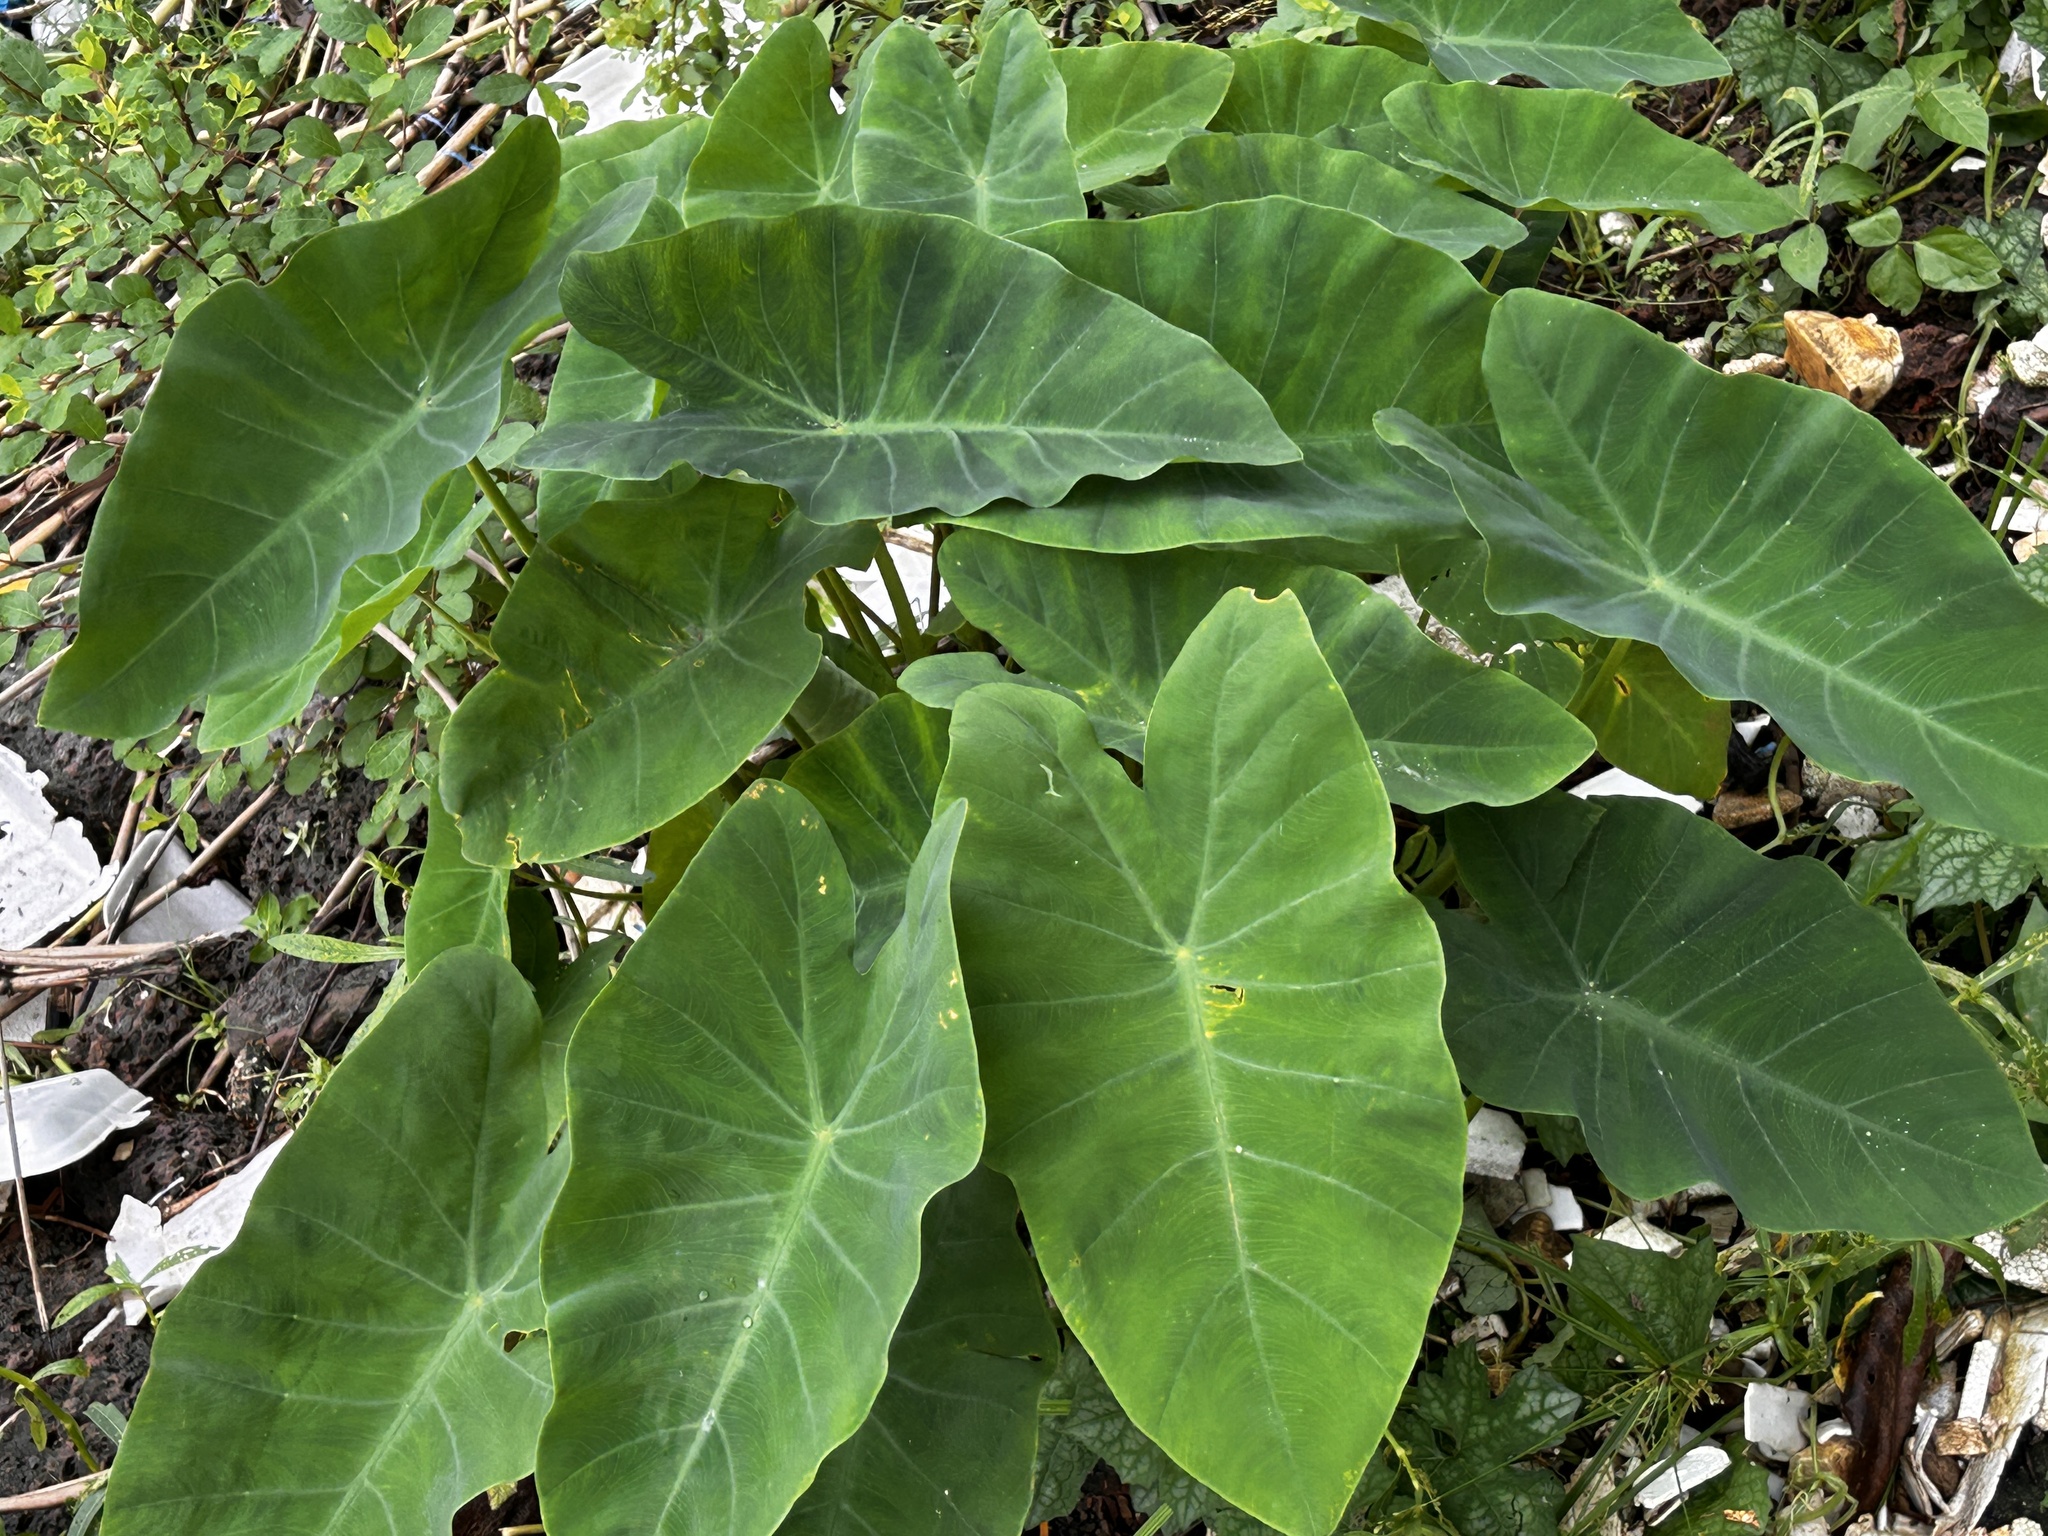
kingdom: Plantae
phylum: Tracheophyta
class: Liliopsida
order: Alismatales
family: Araceae
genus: Colocasia
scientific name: Colocasia esculenta
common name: Taro
